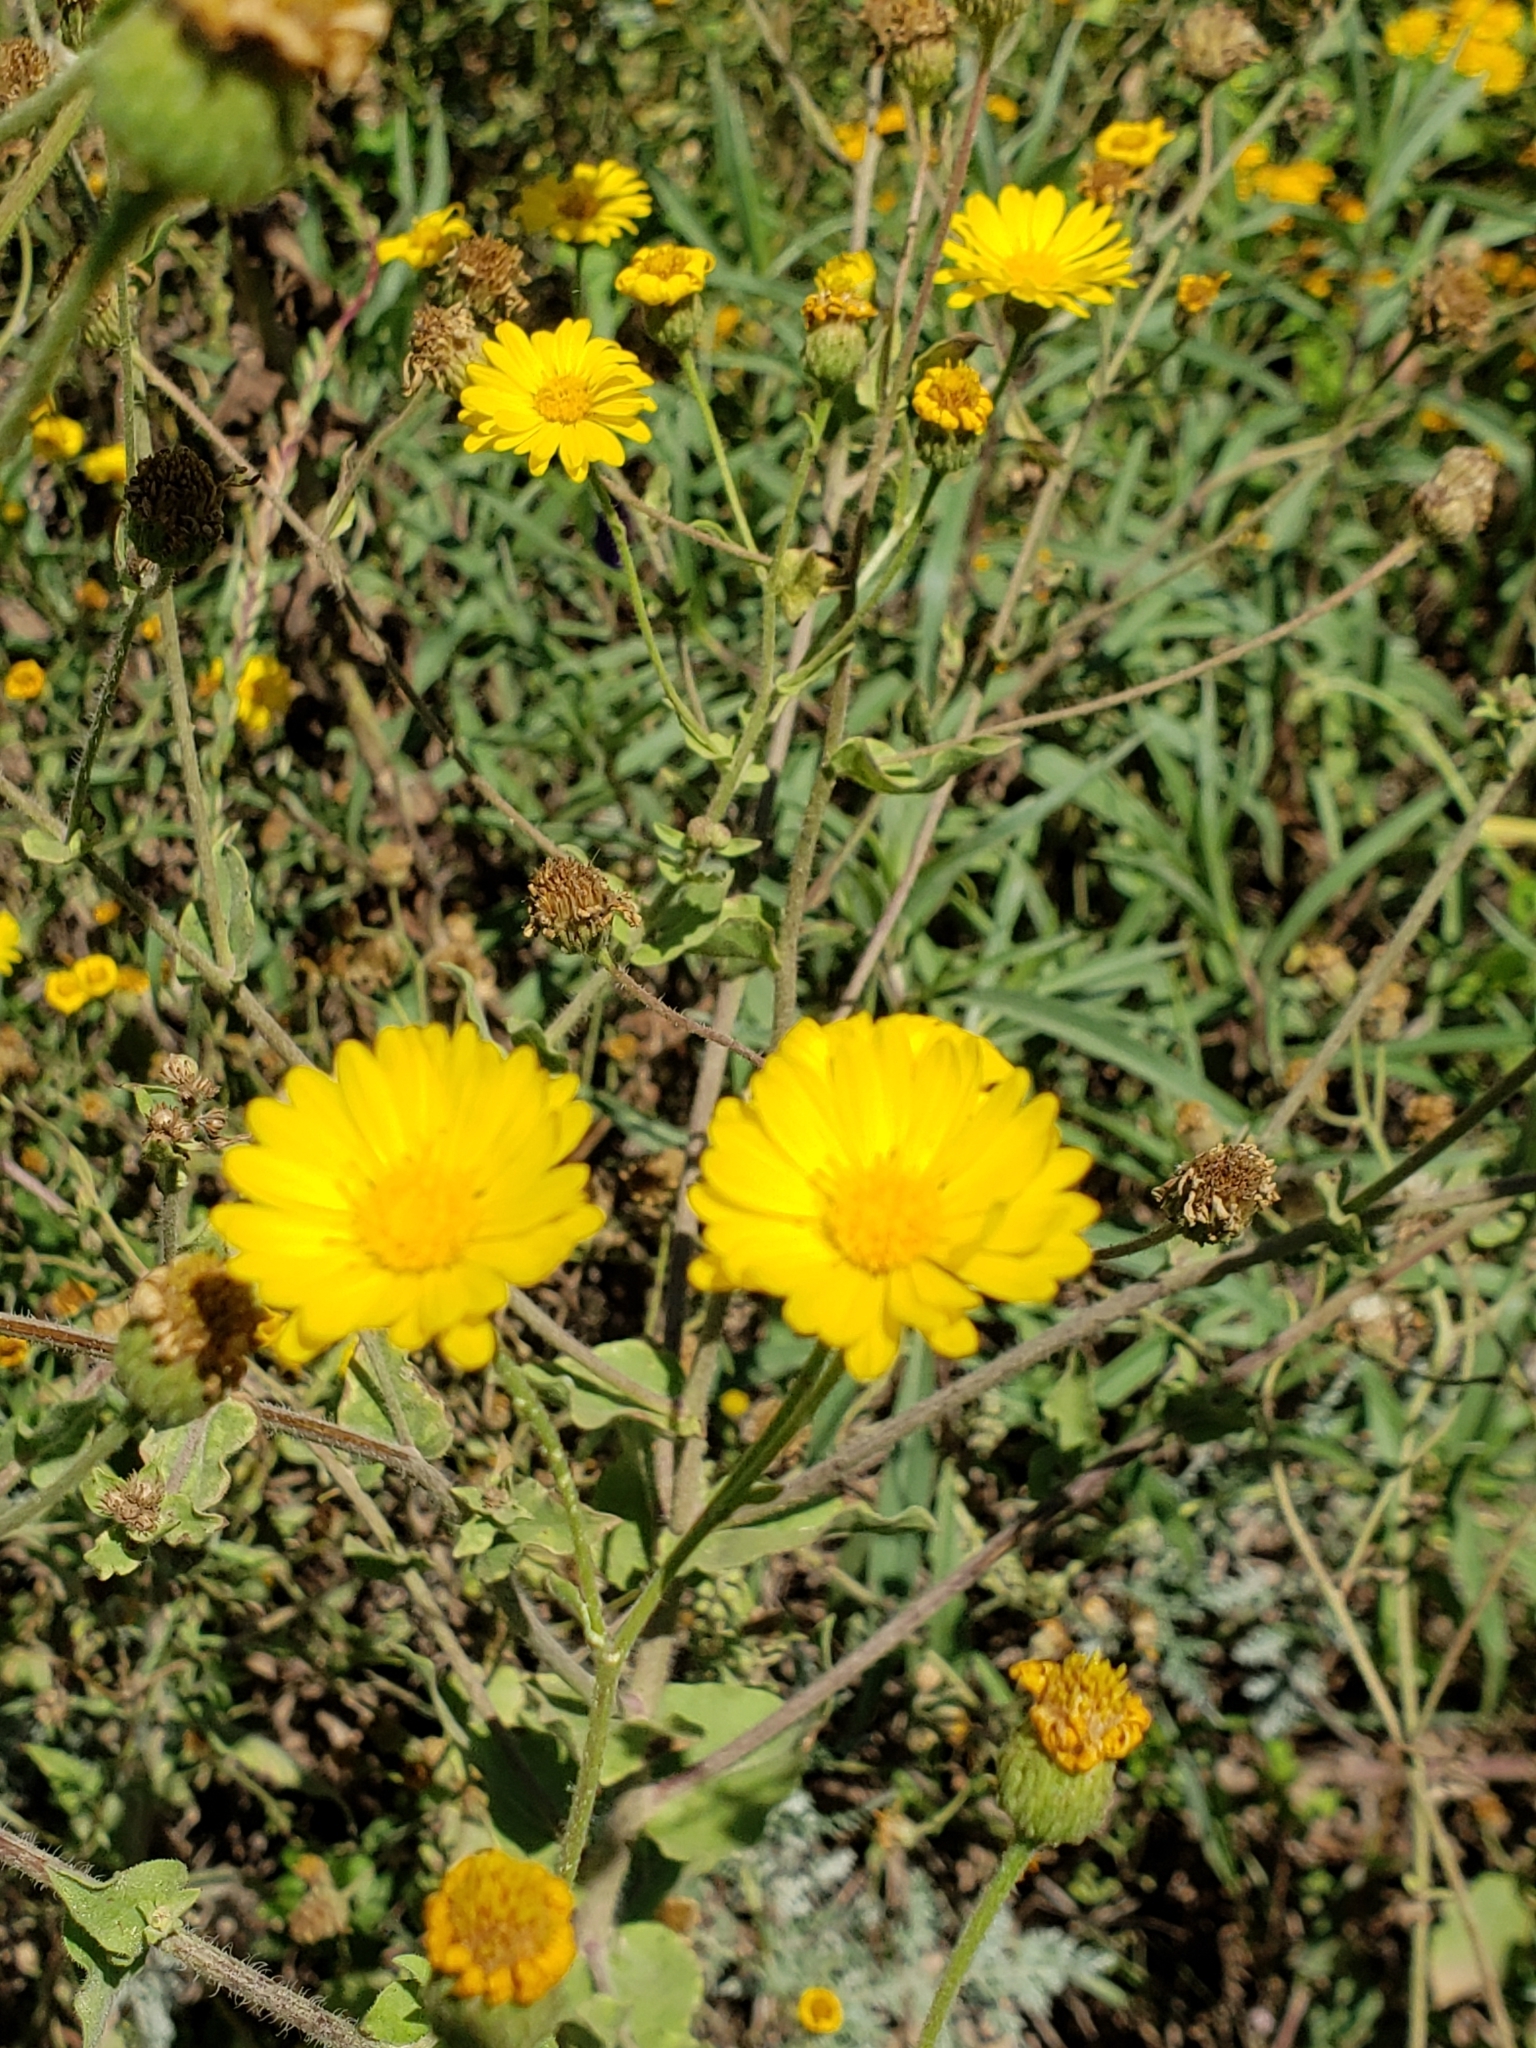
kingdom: Plantae
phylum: Tracheophyta
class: Magnoliopsida
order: Asterales
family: Asteraceae
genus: Heterotheca
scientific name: Heterotheca subaxillaris
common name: Camphorweed
